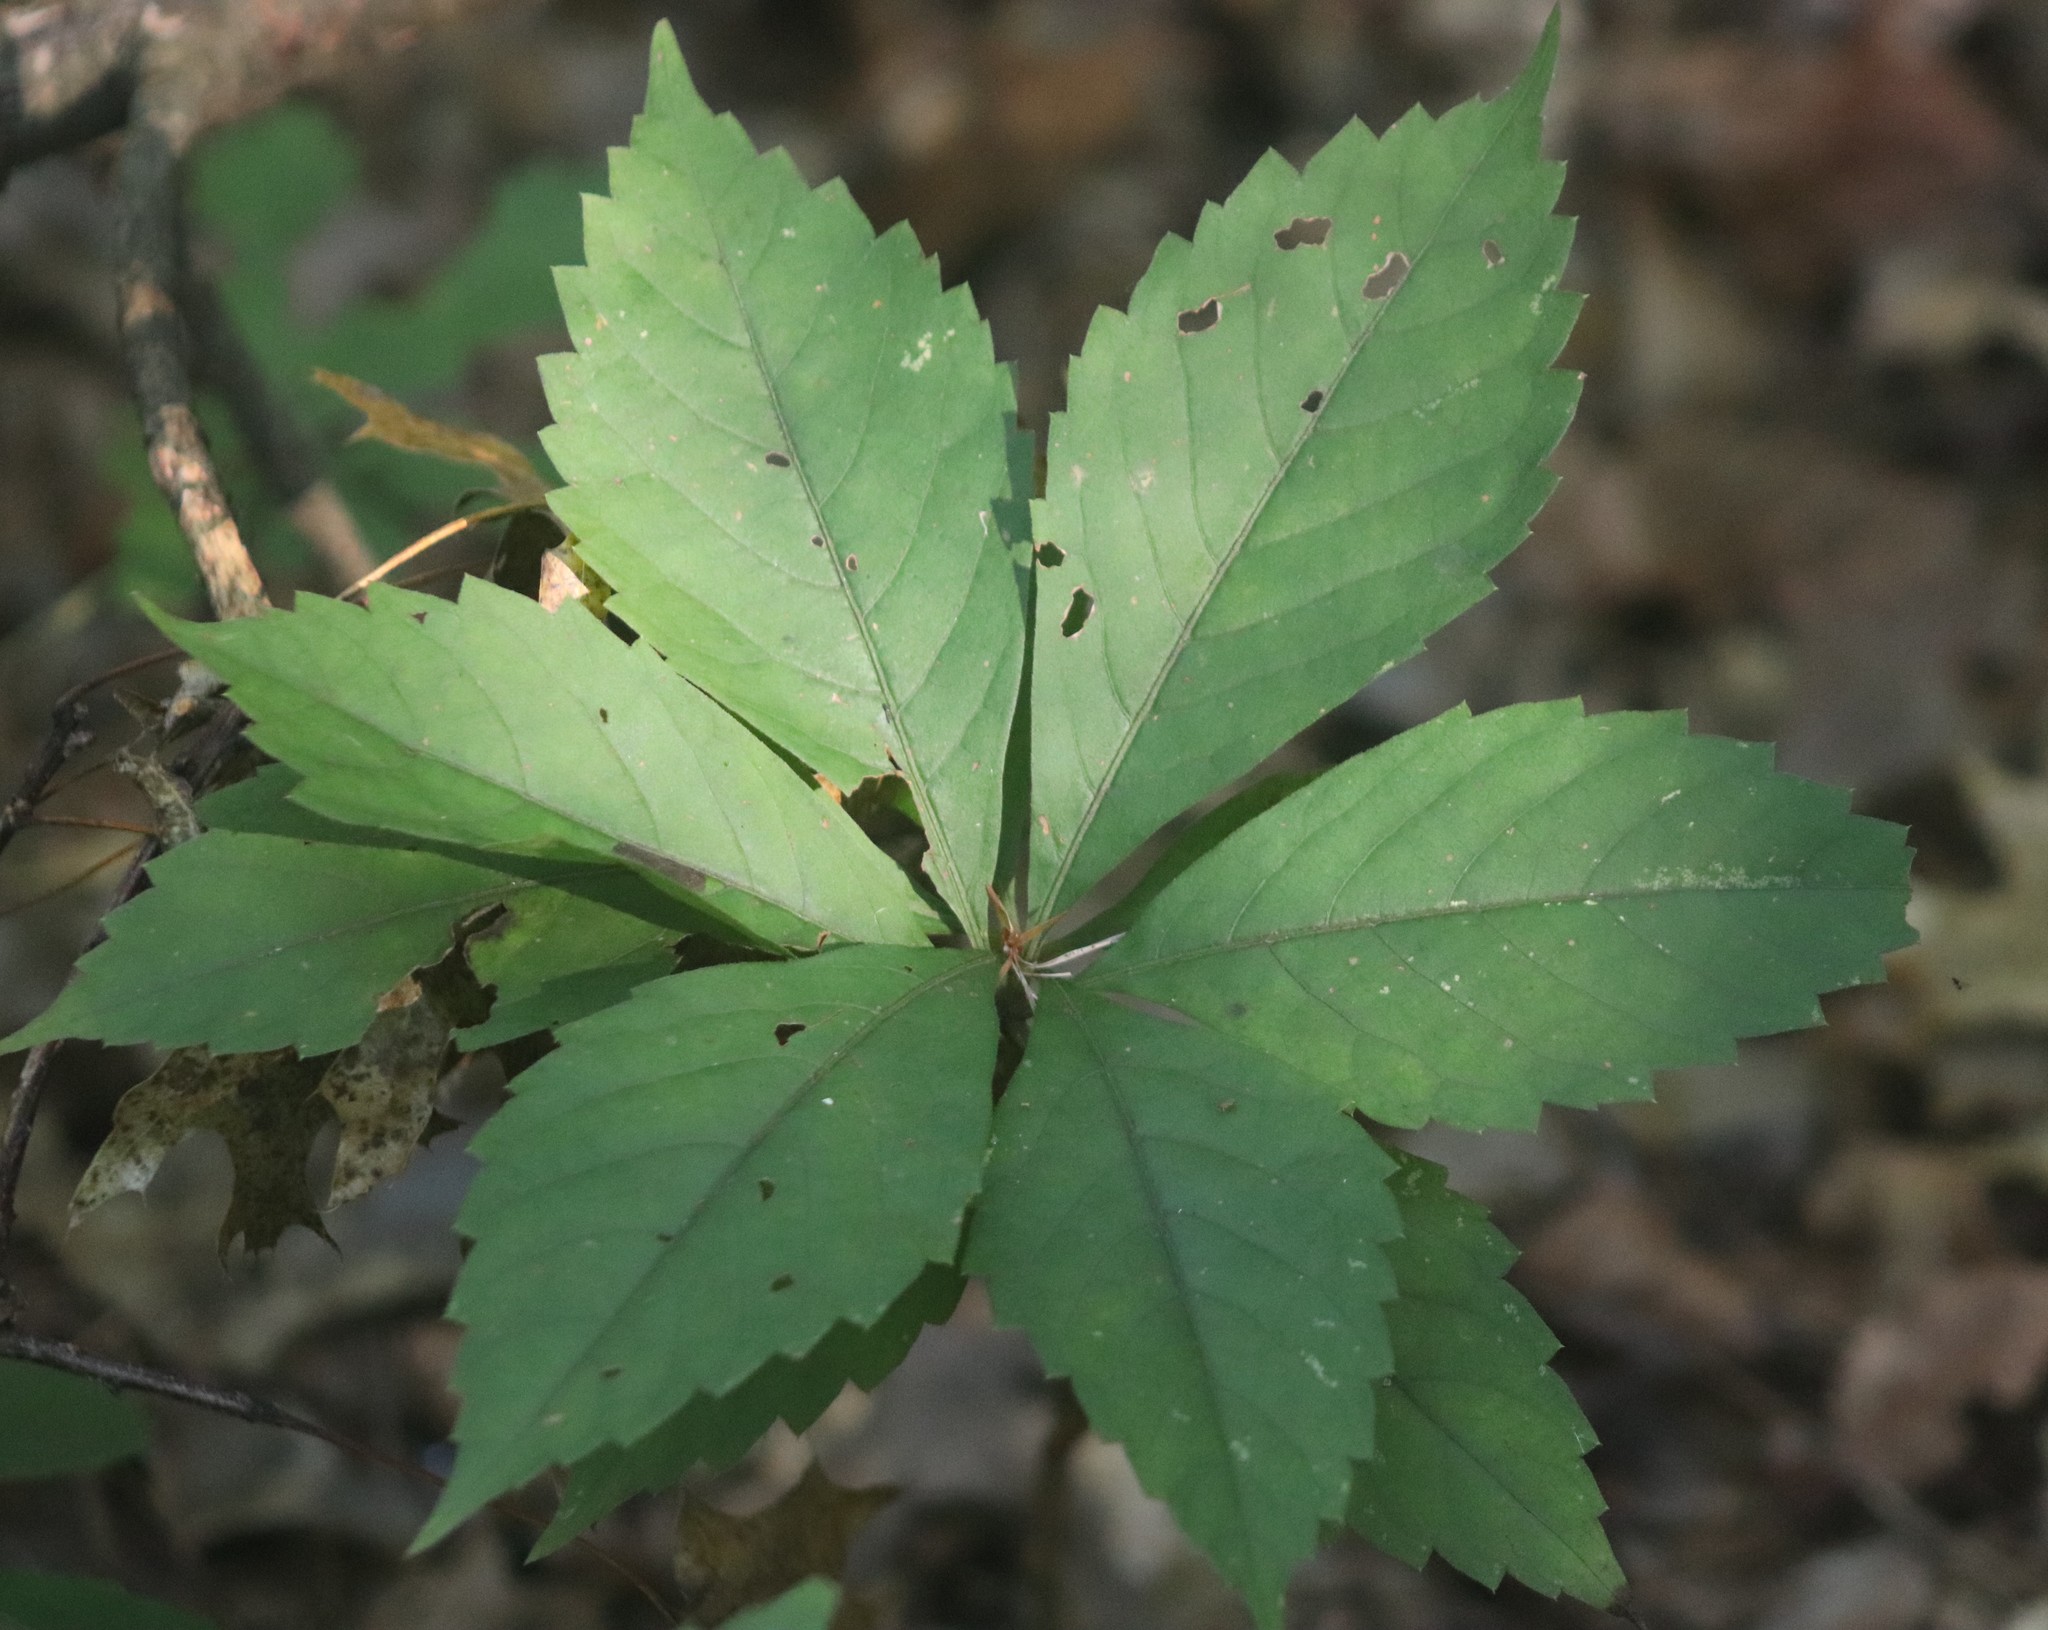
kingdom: Plantae
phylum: Tracheophyta
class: Magnoliopsida
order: Vitales
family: Vitaceae
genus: Parthenocissus
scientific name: Parthenocissus quinquefolia
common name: Virginia-creeper
